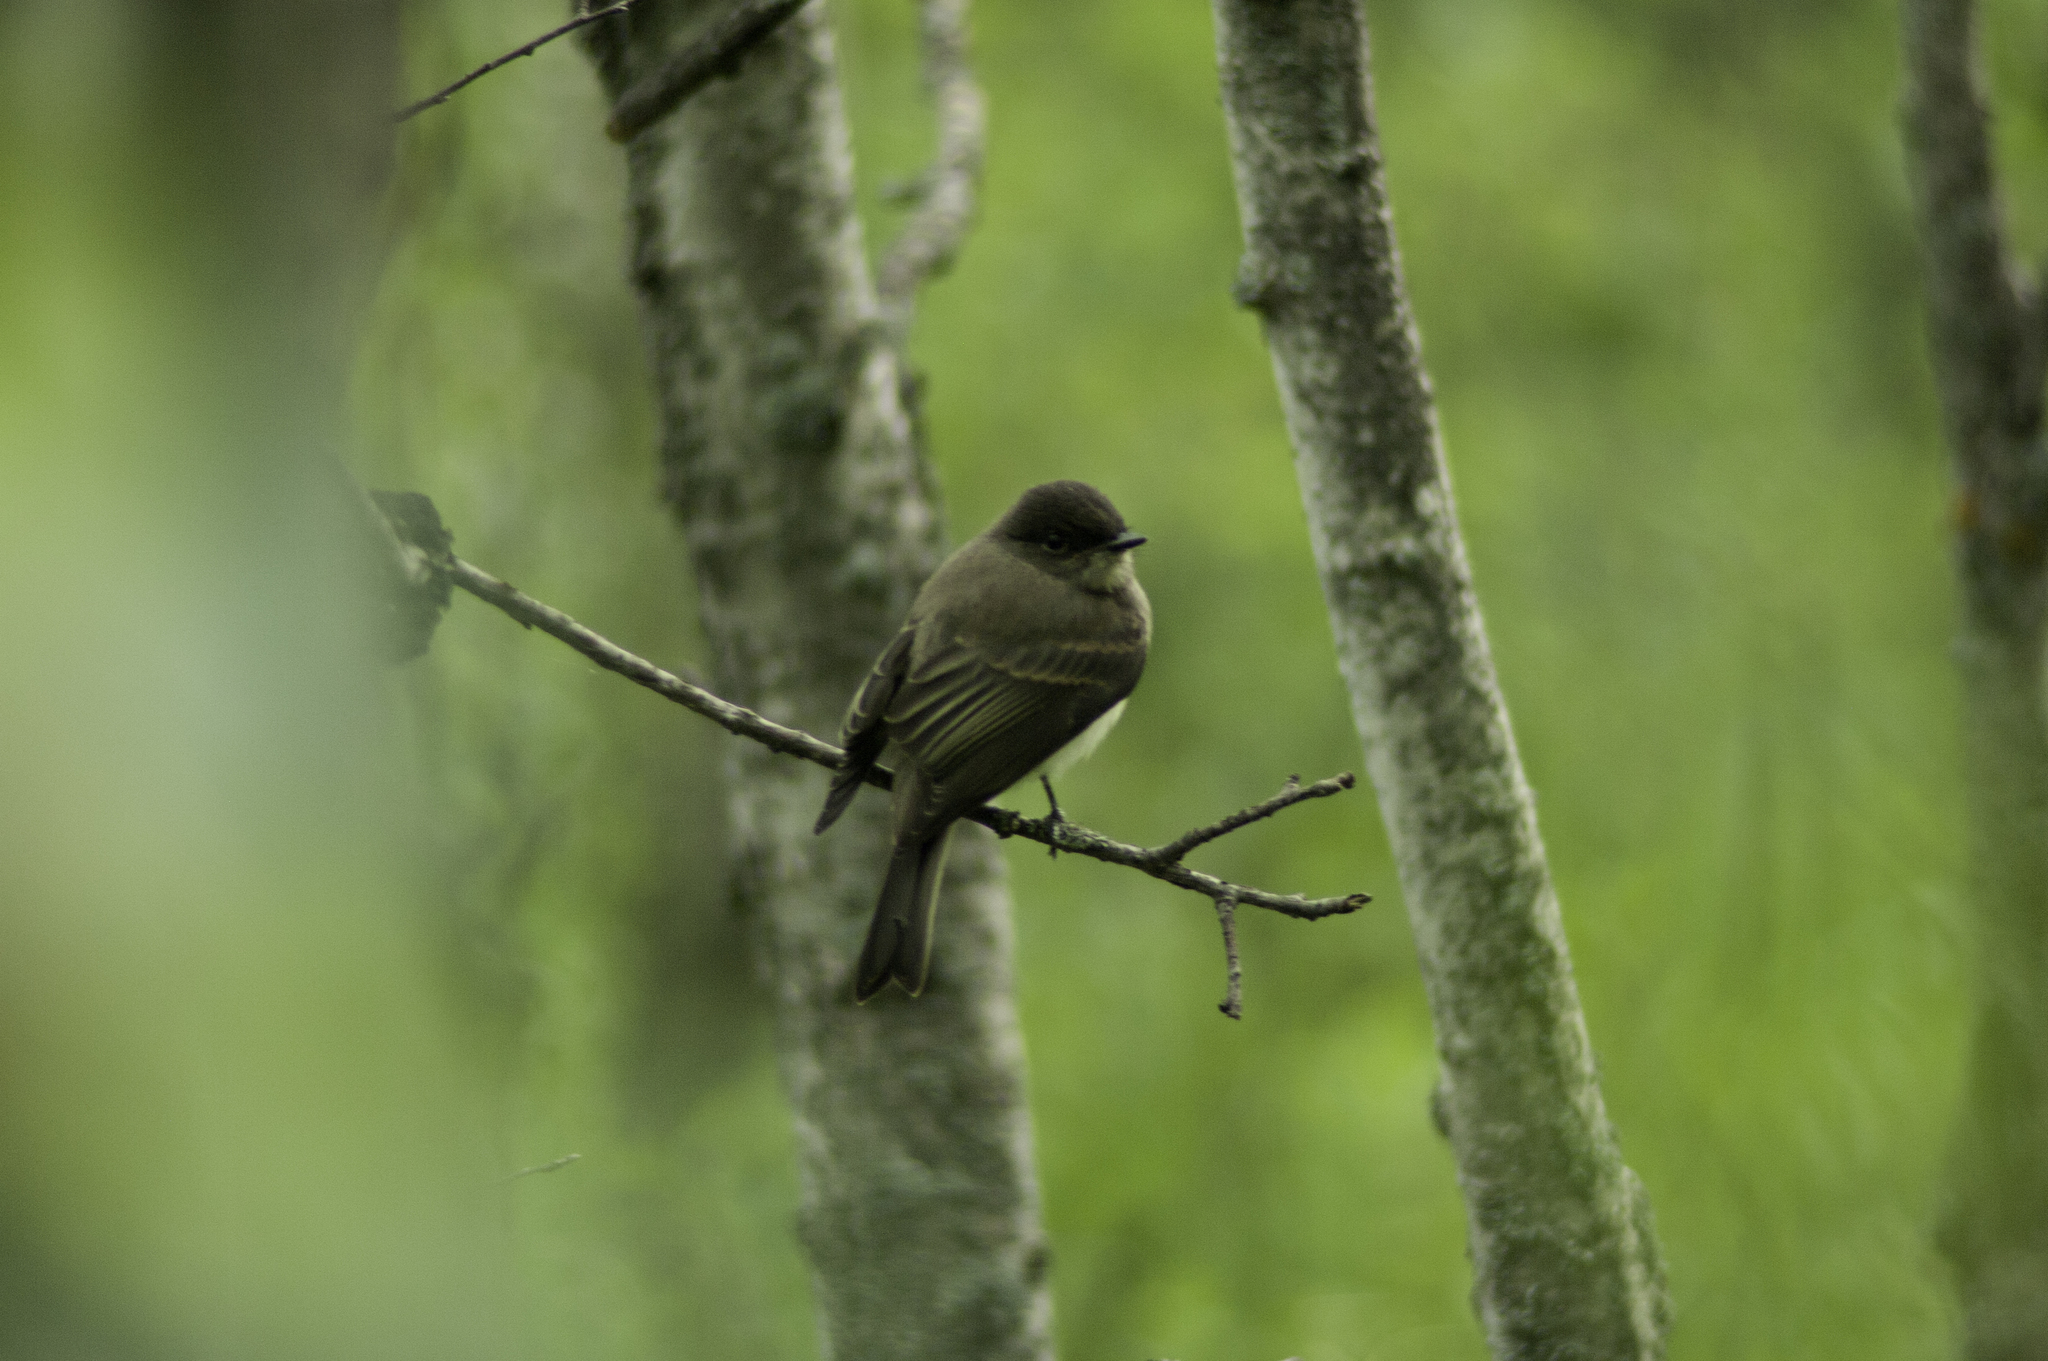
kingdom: Animalia
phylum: Chordata
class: Aves
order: Passeriformes
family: Tyrannidae
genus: Sayornis
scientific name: Sayornis phoebe
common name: Eastern phoebe
